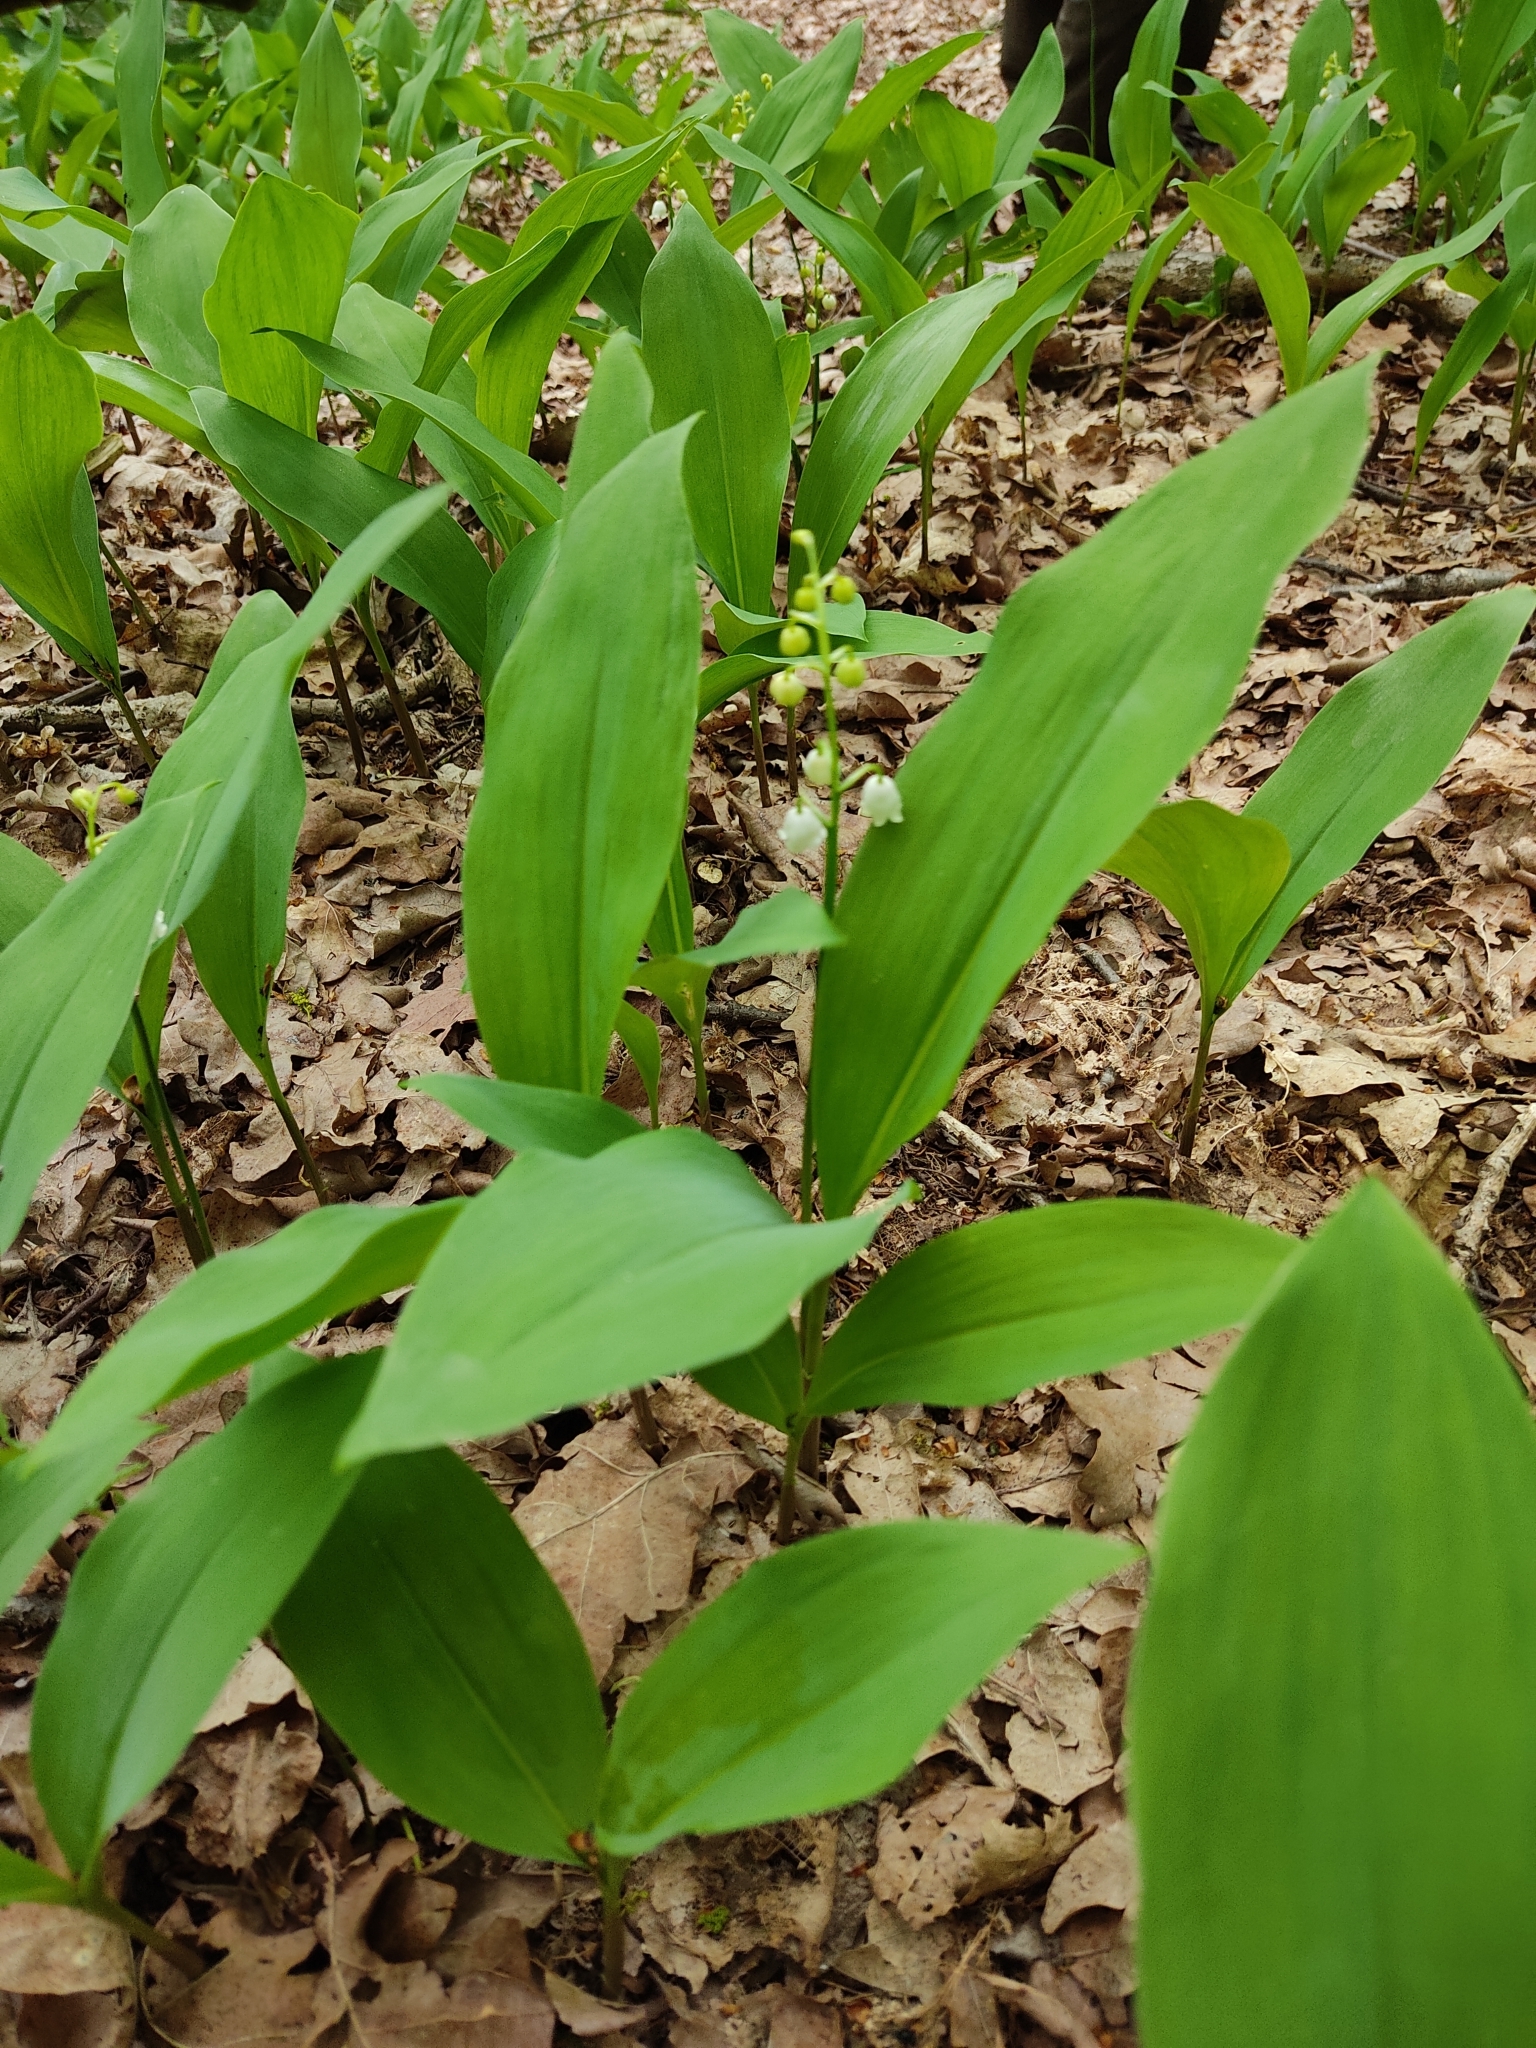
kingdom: Plantae
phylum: Tracheophyta
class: Liliopsida
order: Asparagales
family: Asparagaceae
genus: Convallaria
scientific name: Convallaria majalis
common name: Lily-of-the-valley
